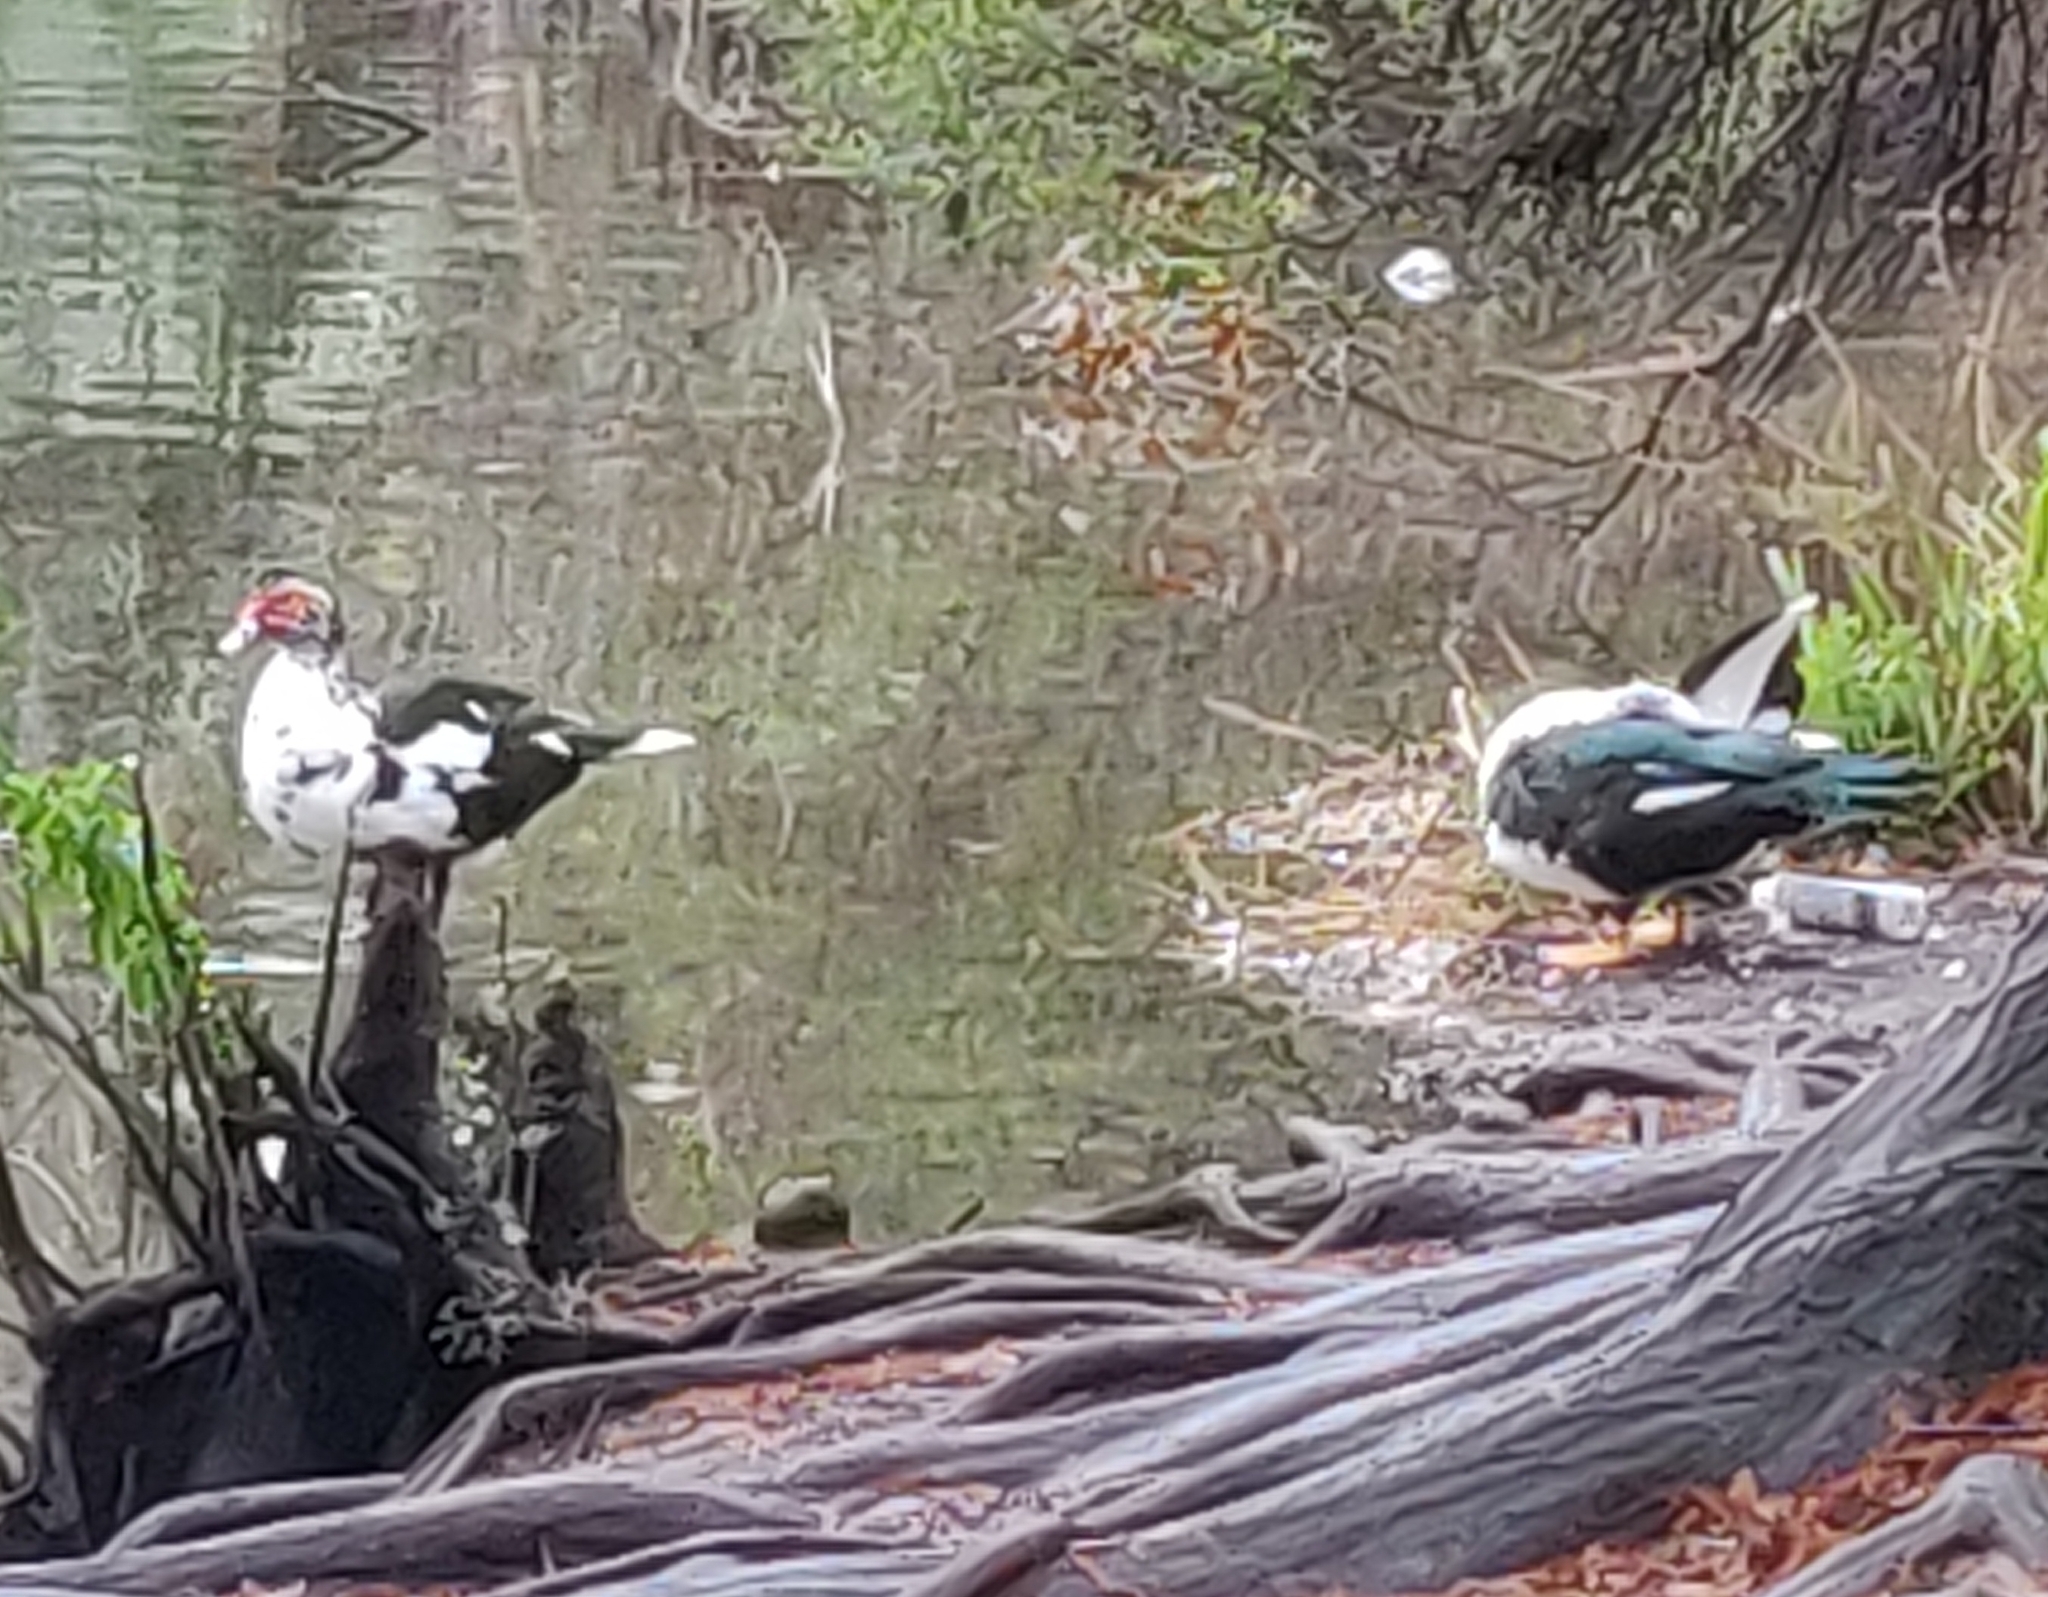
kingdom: Animalia
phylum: Chordata
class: Aves
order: Anseriformes
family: Anatidae
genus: Cairina
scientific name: Cairina moschata
